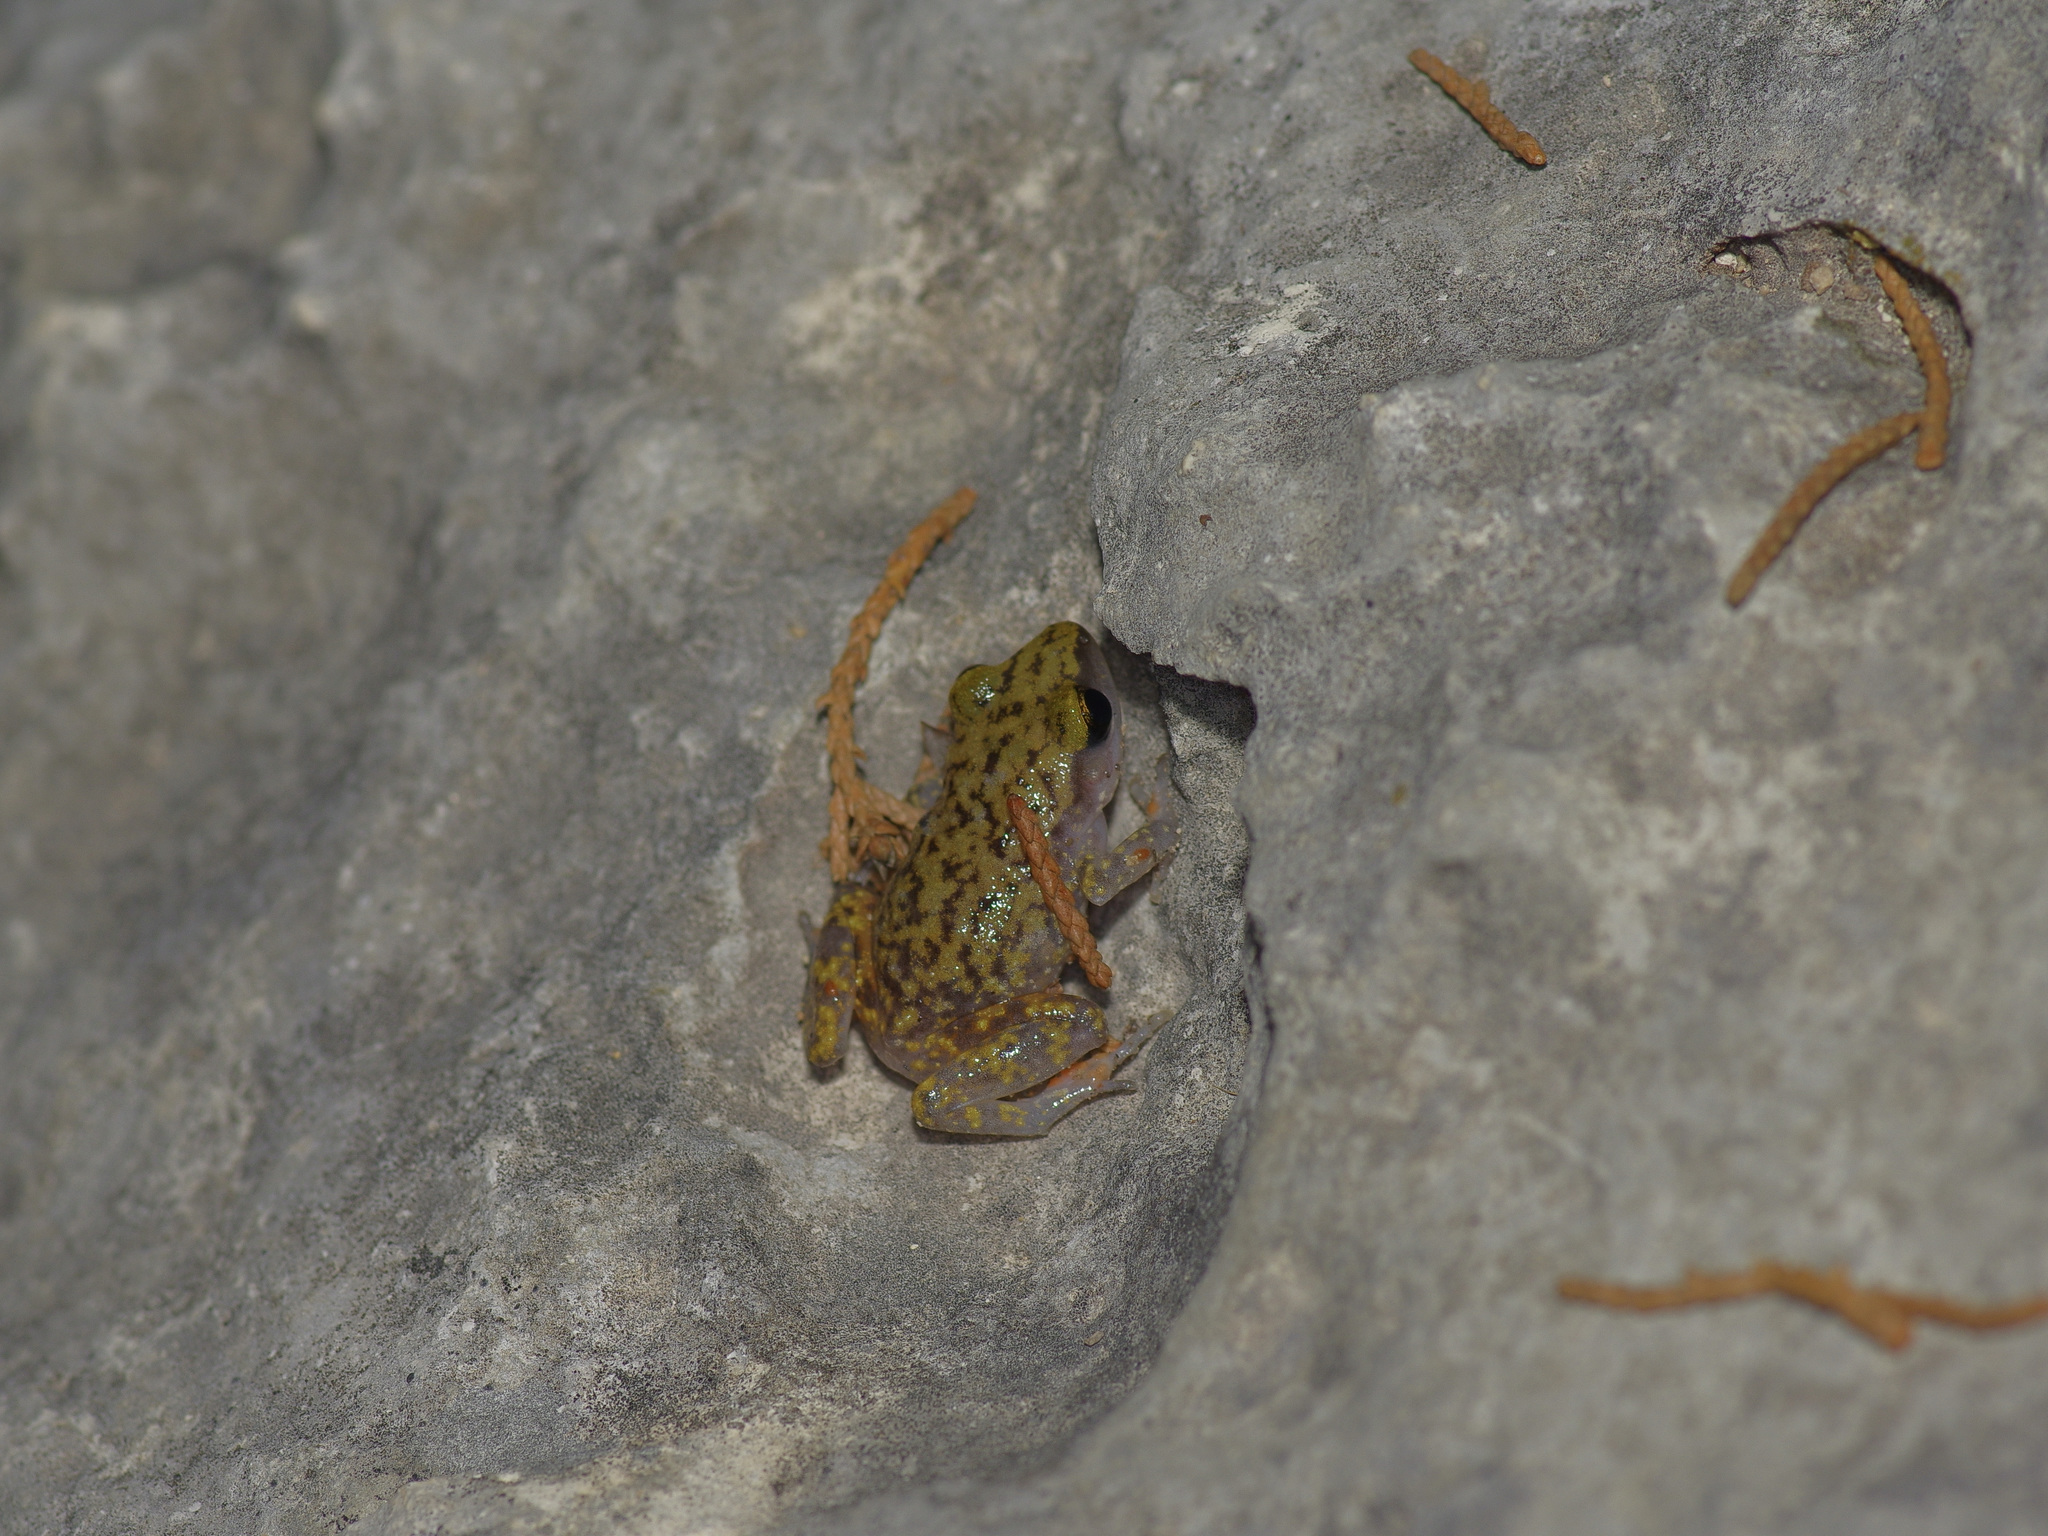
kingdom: Animalia
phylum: Chordata
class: Amphibia
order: Anura
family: Eleutherodactylidae
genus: Eleutherodactylus
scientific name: Eleutherodactylus marnockii
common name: Cliff chirping frog
